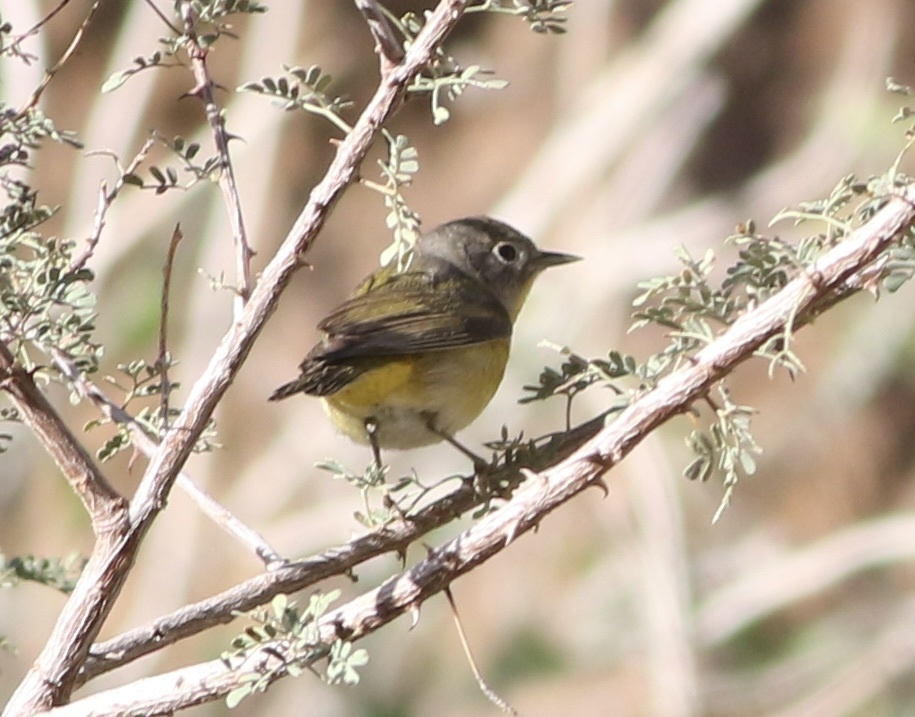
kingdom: Animalia
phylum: Chordata
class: Aves
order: Passeriformes
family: Parulidae
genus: Leiothlypis
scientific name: Leiothlypis ruficapilla
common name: Nashville warbler
